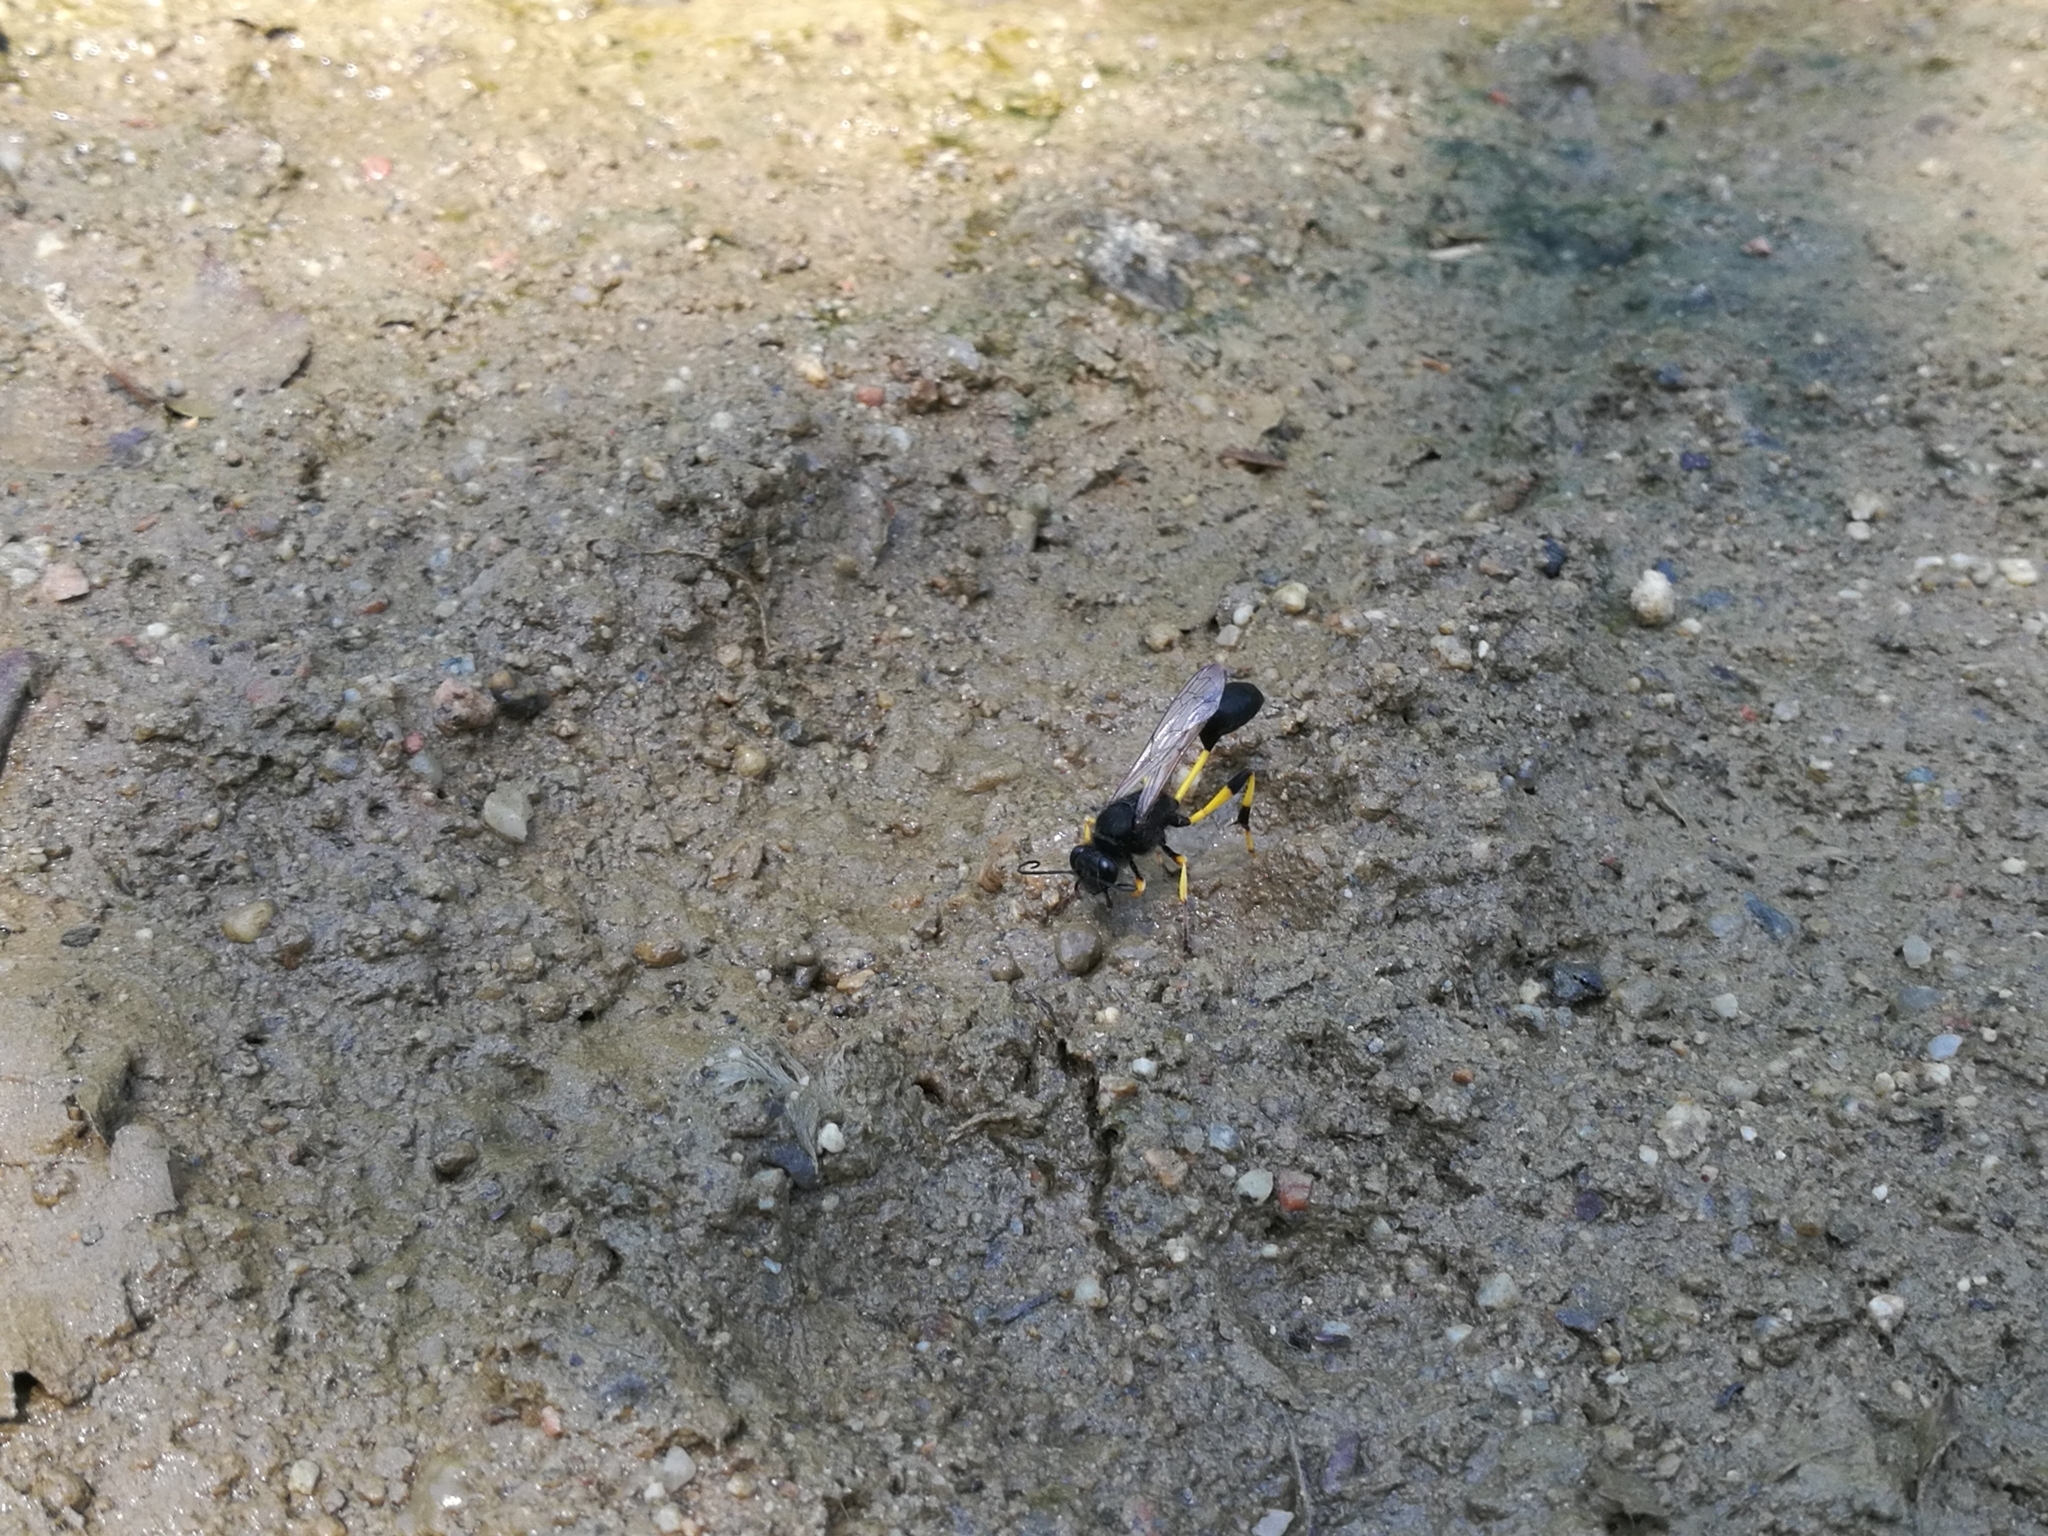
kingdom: Animalia
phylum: Arthropoda
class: Insecta
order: Hymenoptera
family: Sphecidae
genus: Sceliphron
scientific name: Sceliphron spirifex
